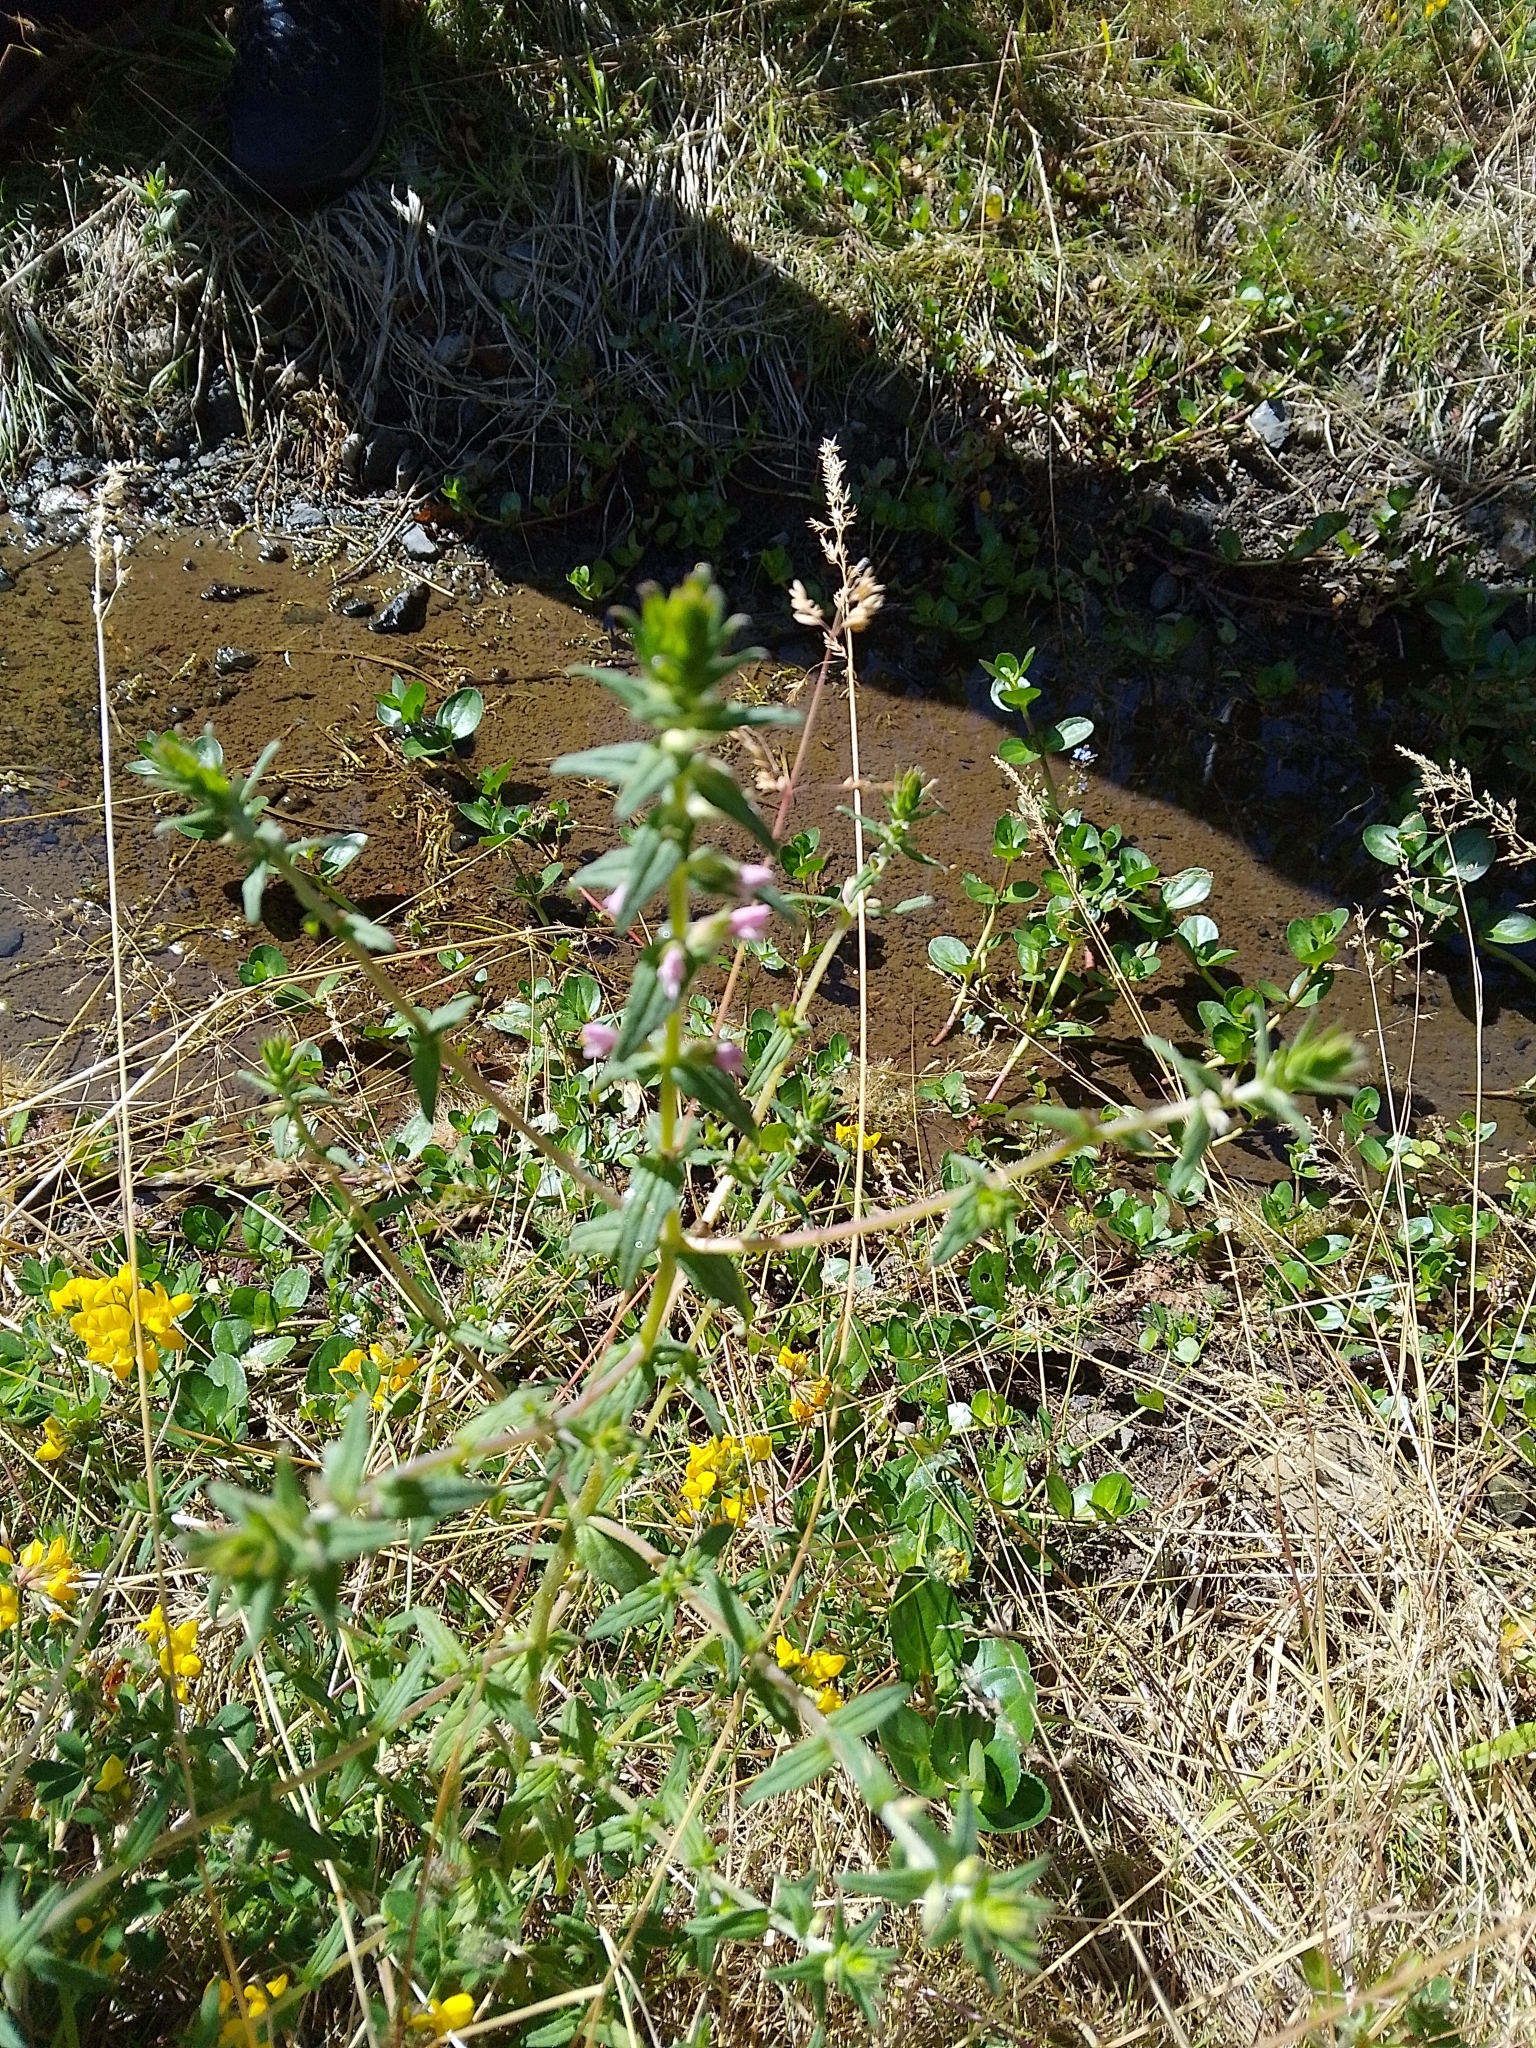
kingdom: Plantae
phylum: Tracheophyta
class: Magnoliopsida
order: Lamiales
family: Orobanchaceae
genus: Odontites
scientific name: Odontites vernus
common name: Red bartsia
